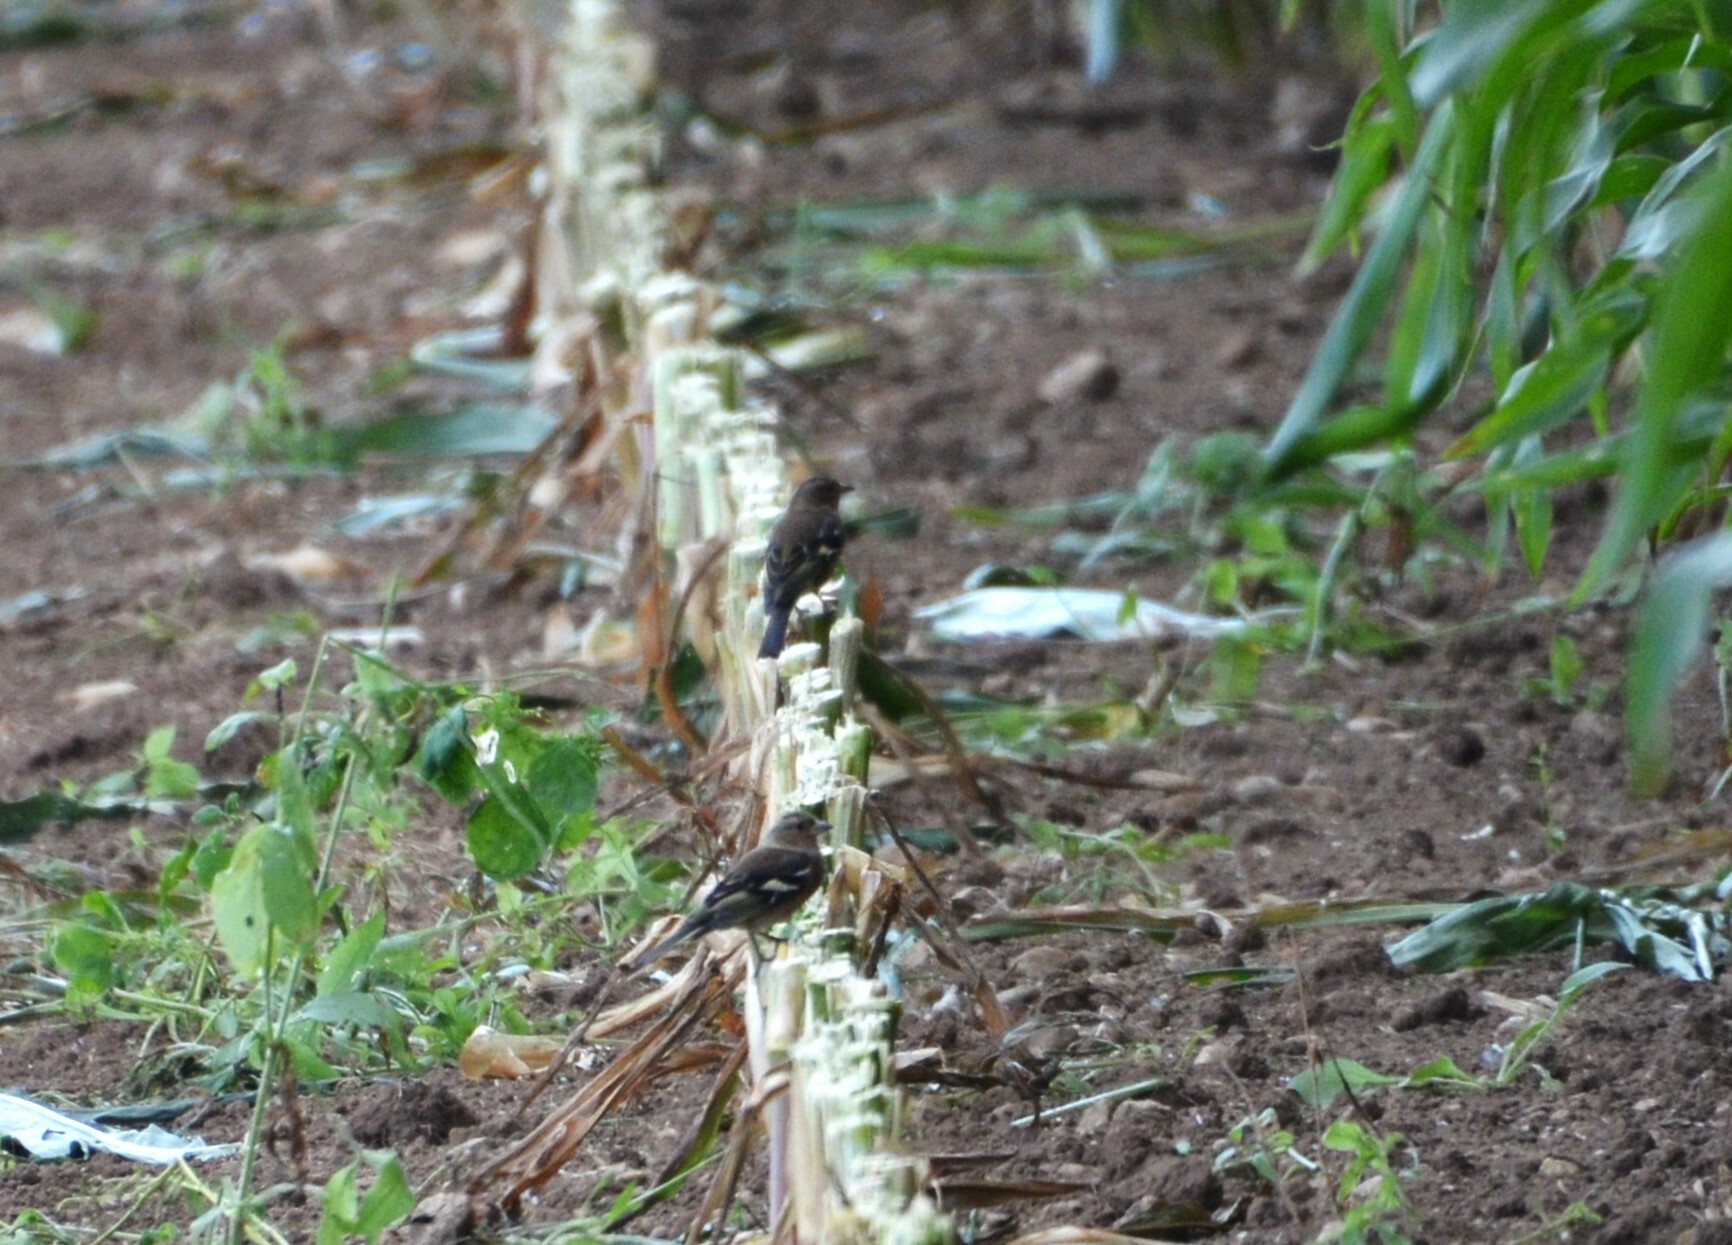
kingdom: Animalia
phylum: Chordata
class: Aves
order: Passeriformes
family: Fringillidae
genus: Fringilla
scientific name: Fringilla coelebs
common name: Common chaffinch
